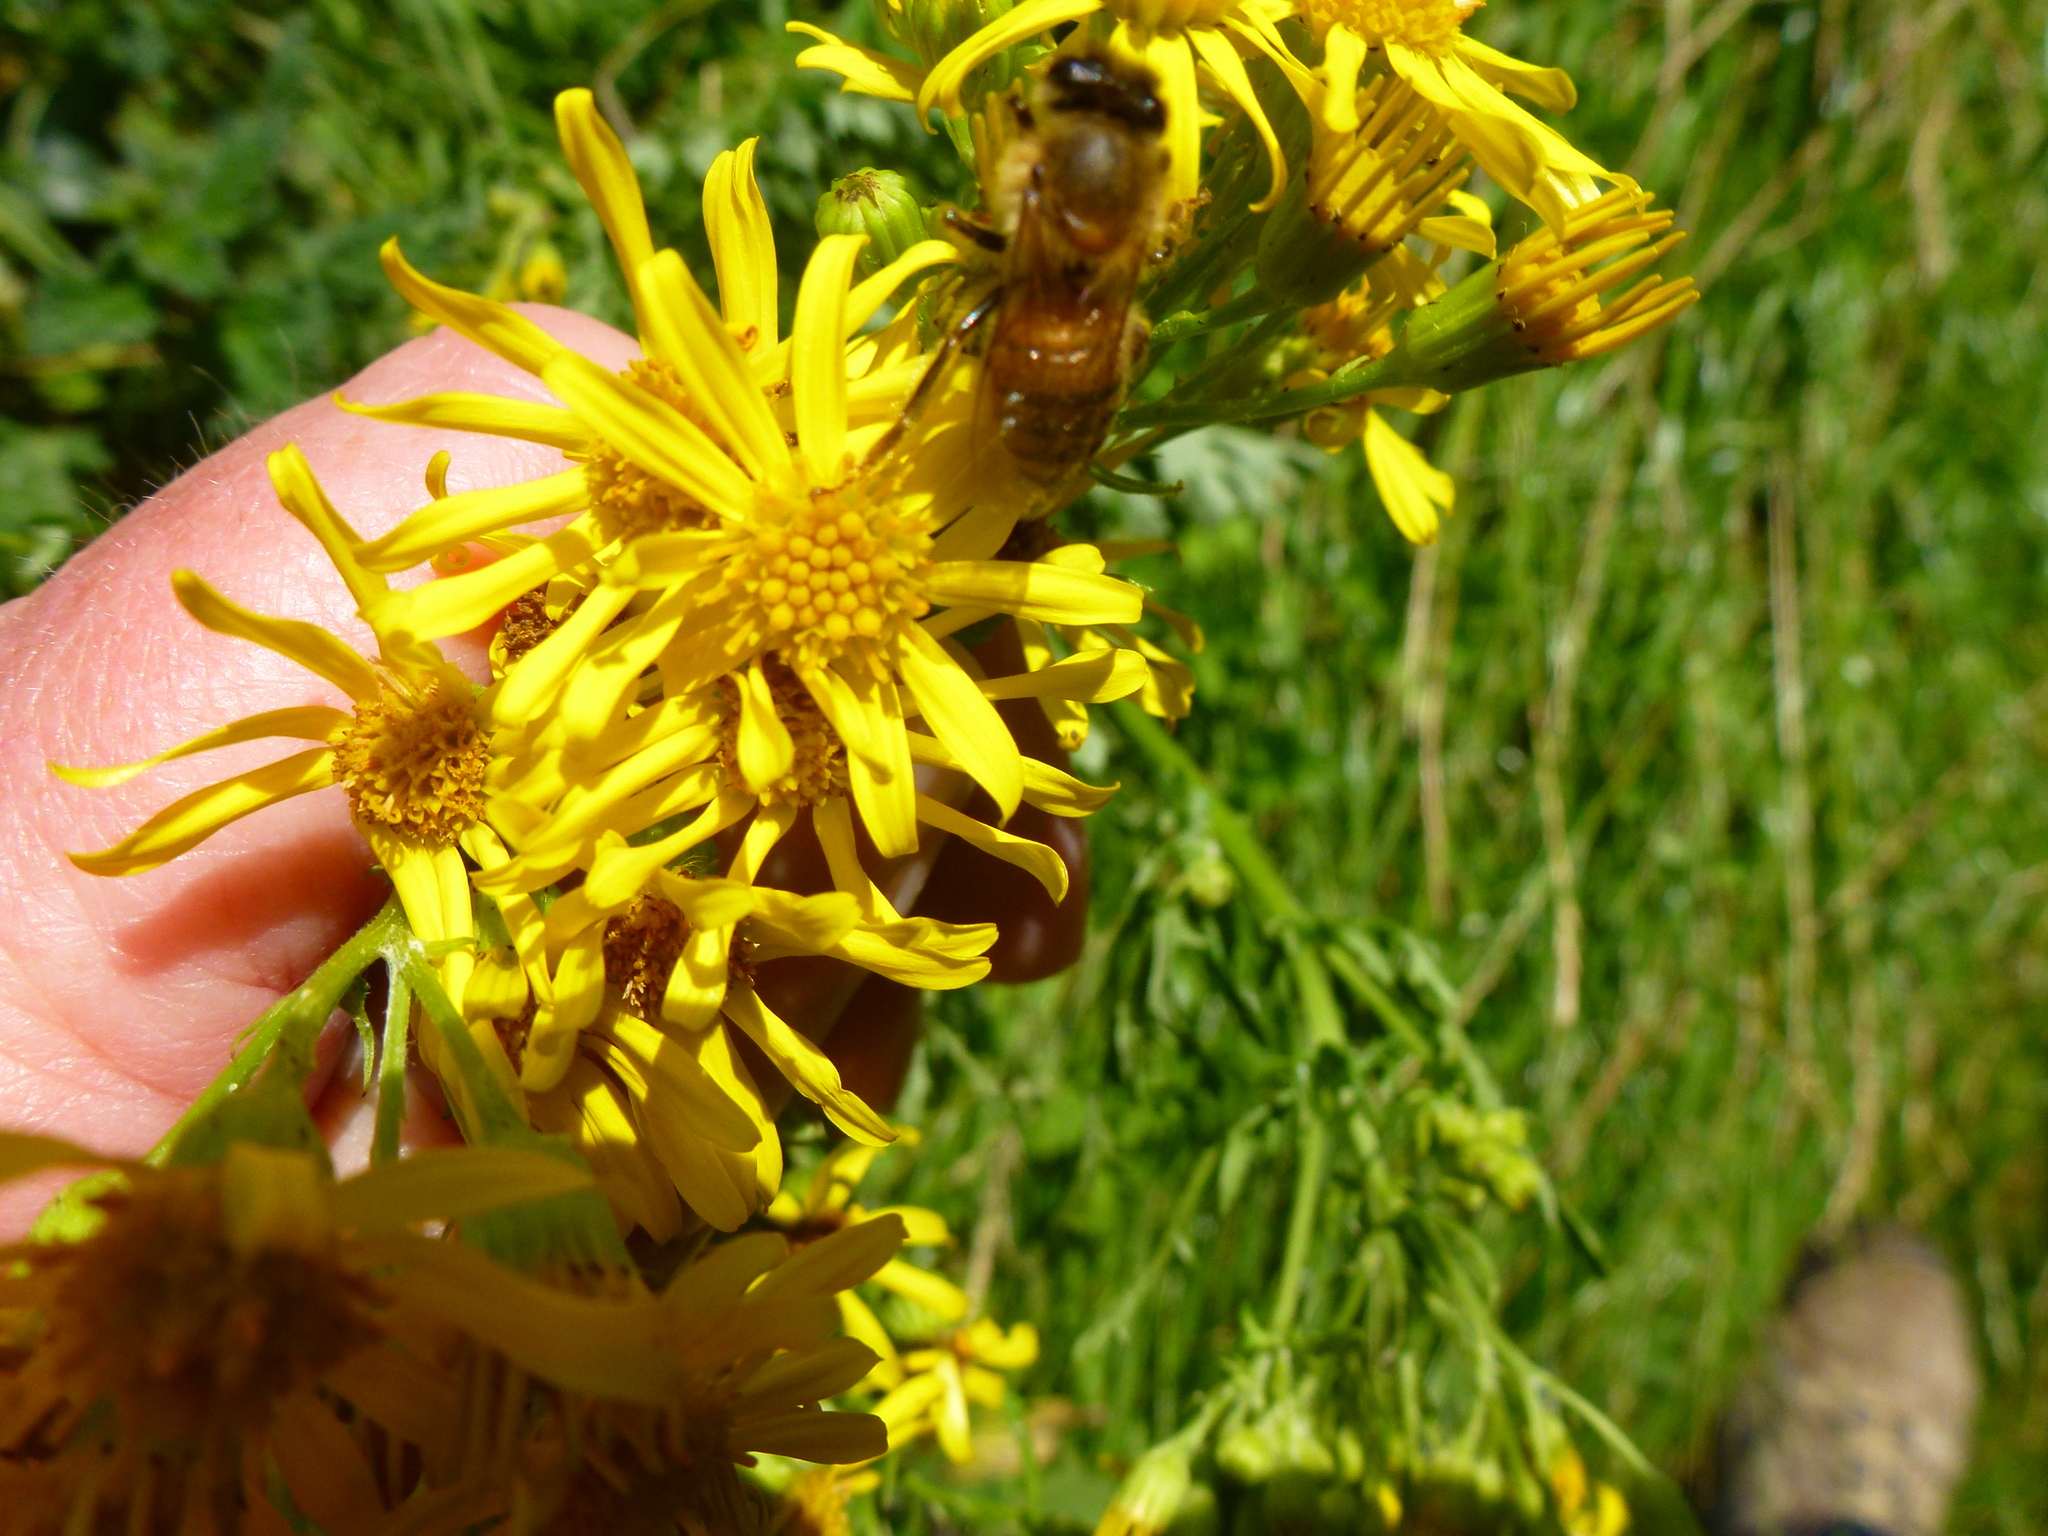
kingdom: Plantae
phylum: Tracheophyta
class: Magnoliopsida
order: Asterales
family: Asteraceae
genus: Jacobaea
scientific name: Jacobaea vulgaris
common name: Stinking willie
